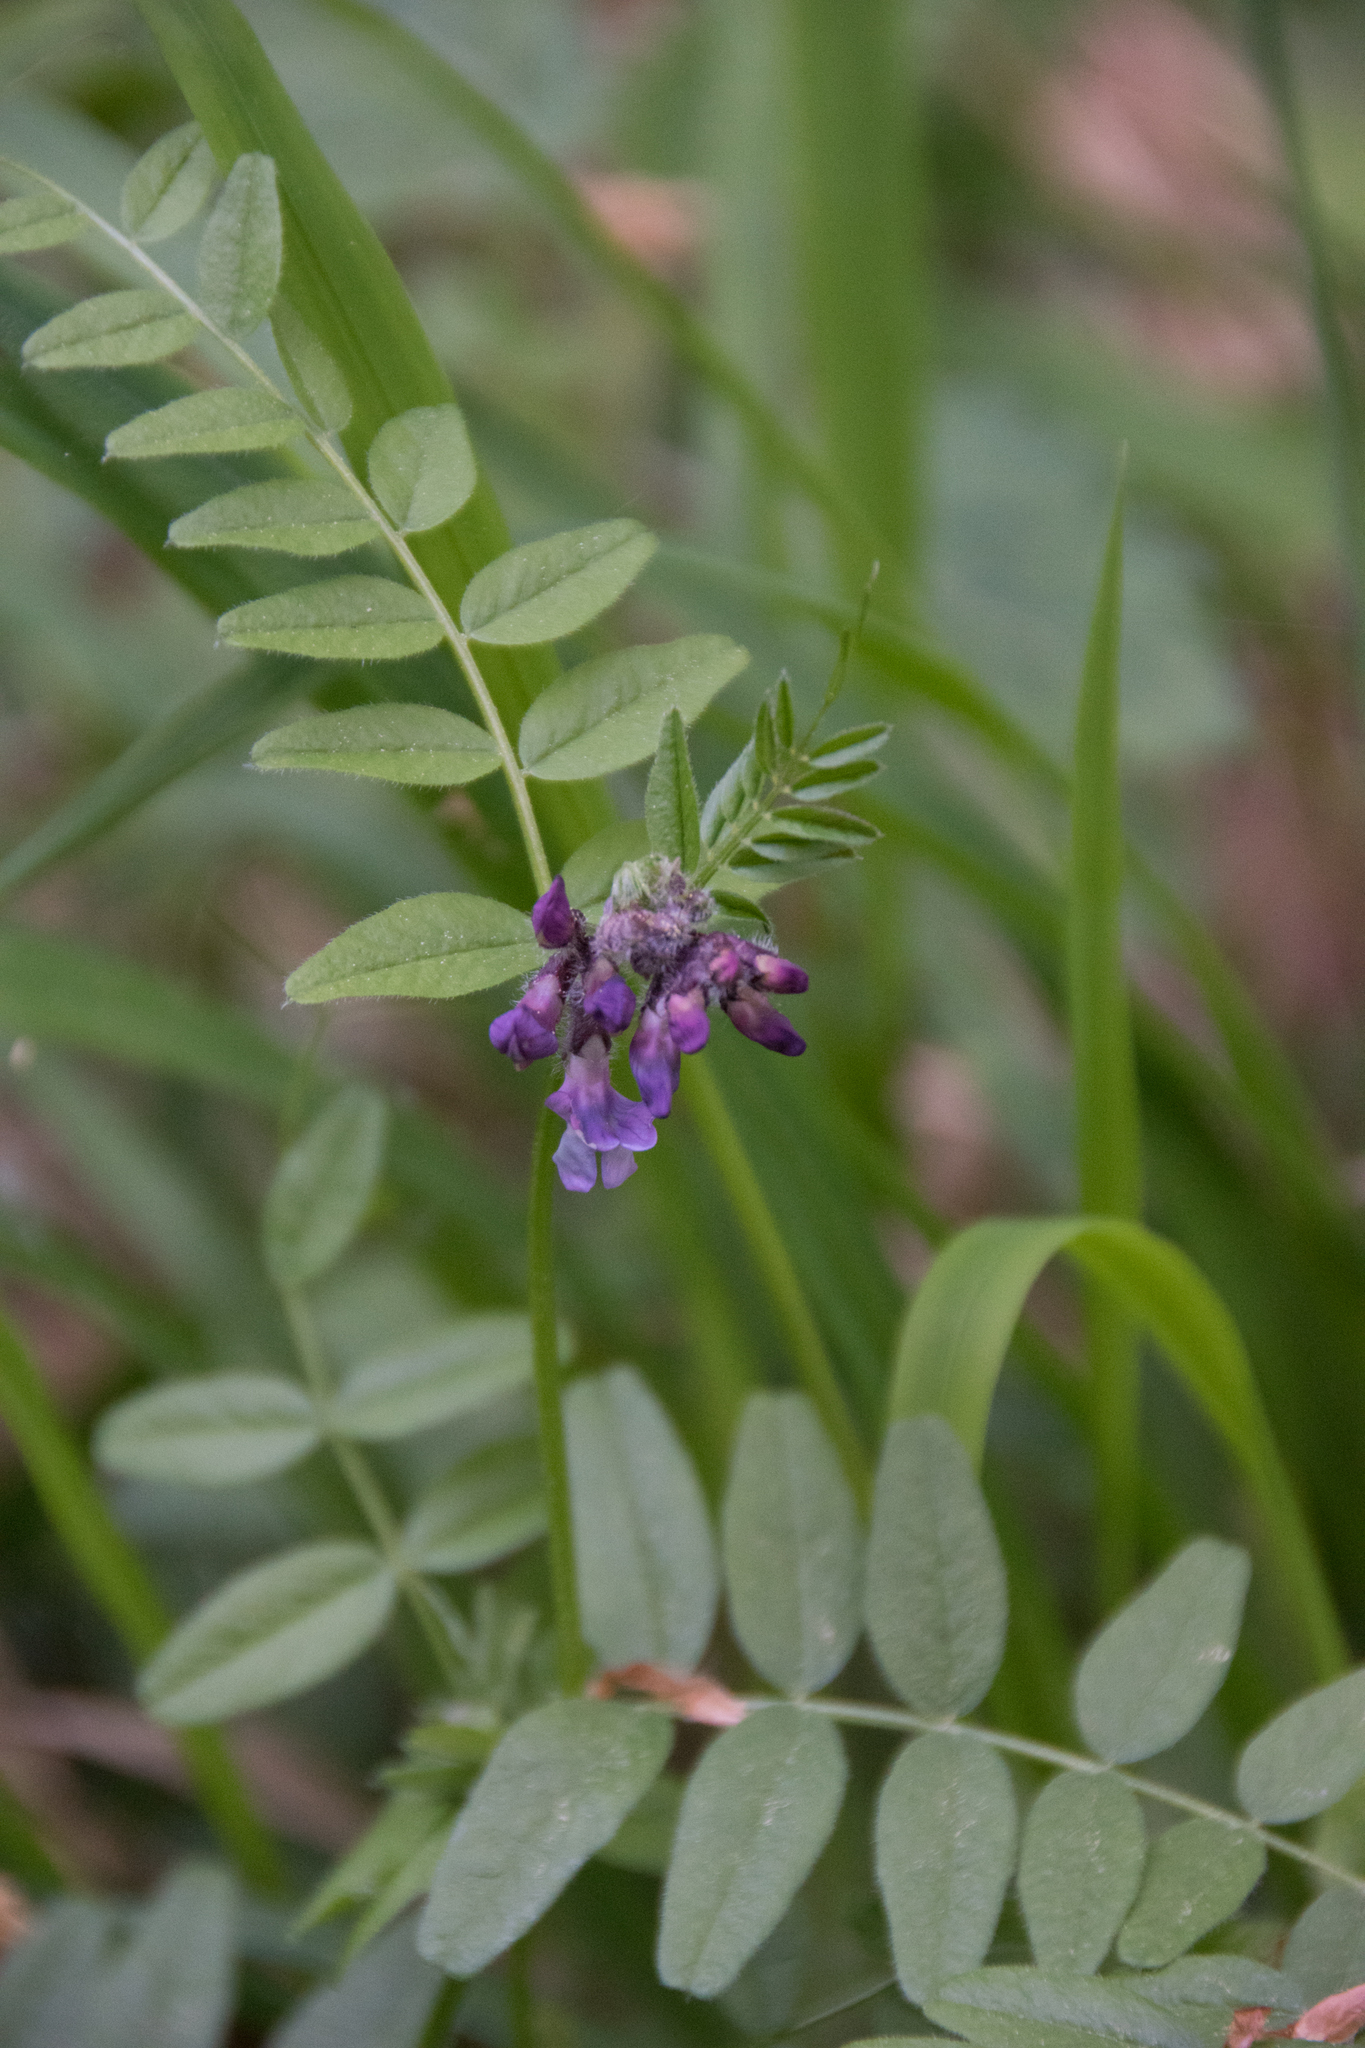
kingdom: Plantae
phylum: Tracheophyta
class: Magnoliopsida
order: Fabales
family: Fabaceae
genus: Vicia
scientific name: Vicia sepium
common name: Bush vetch
